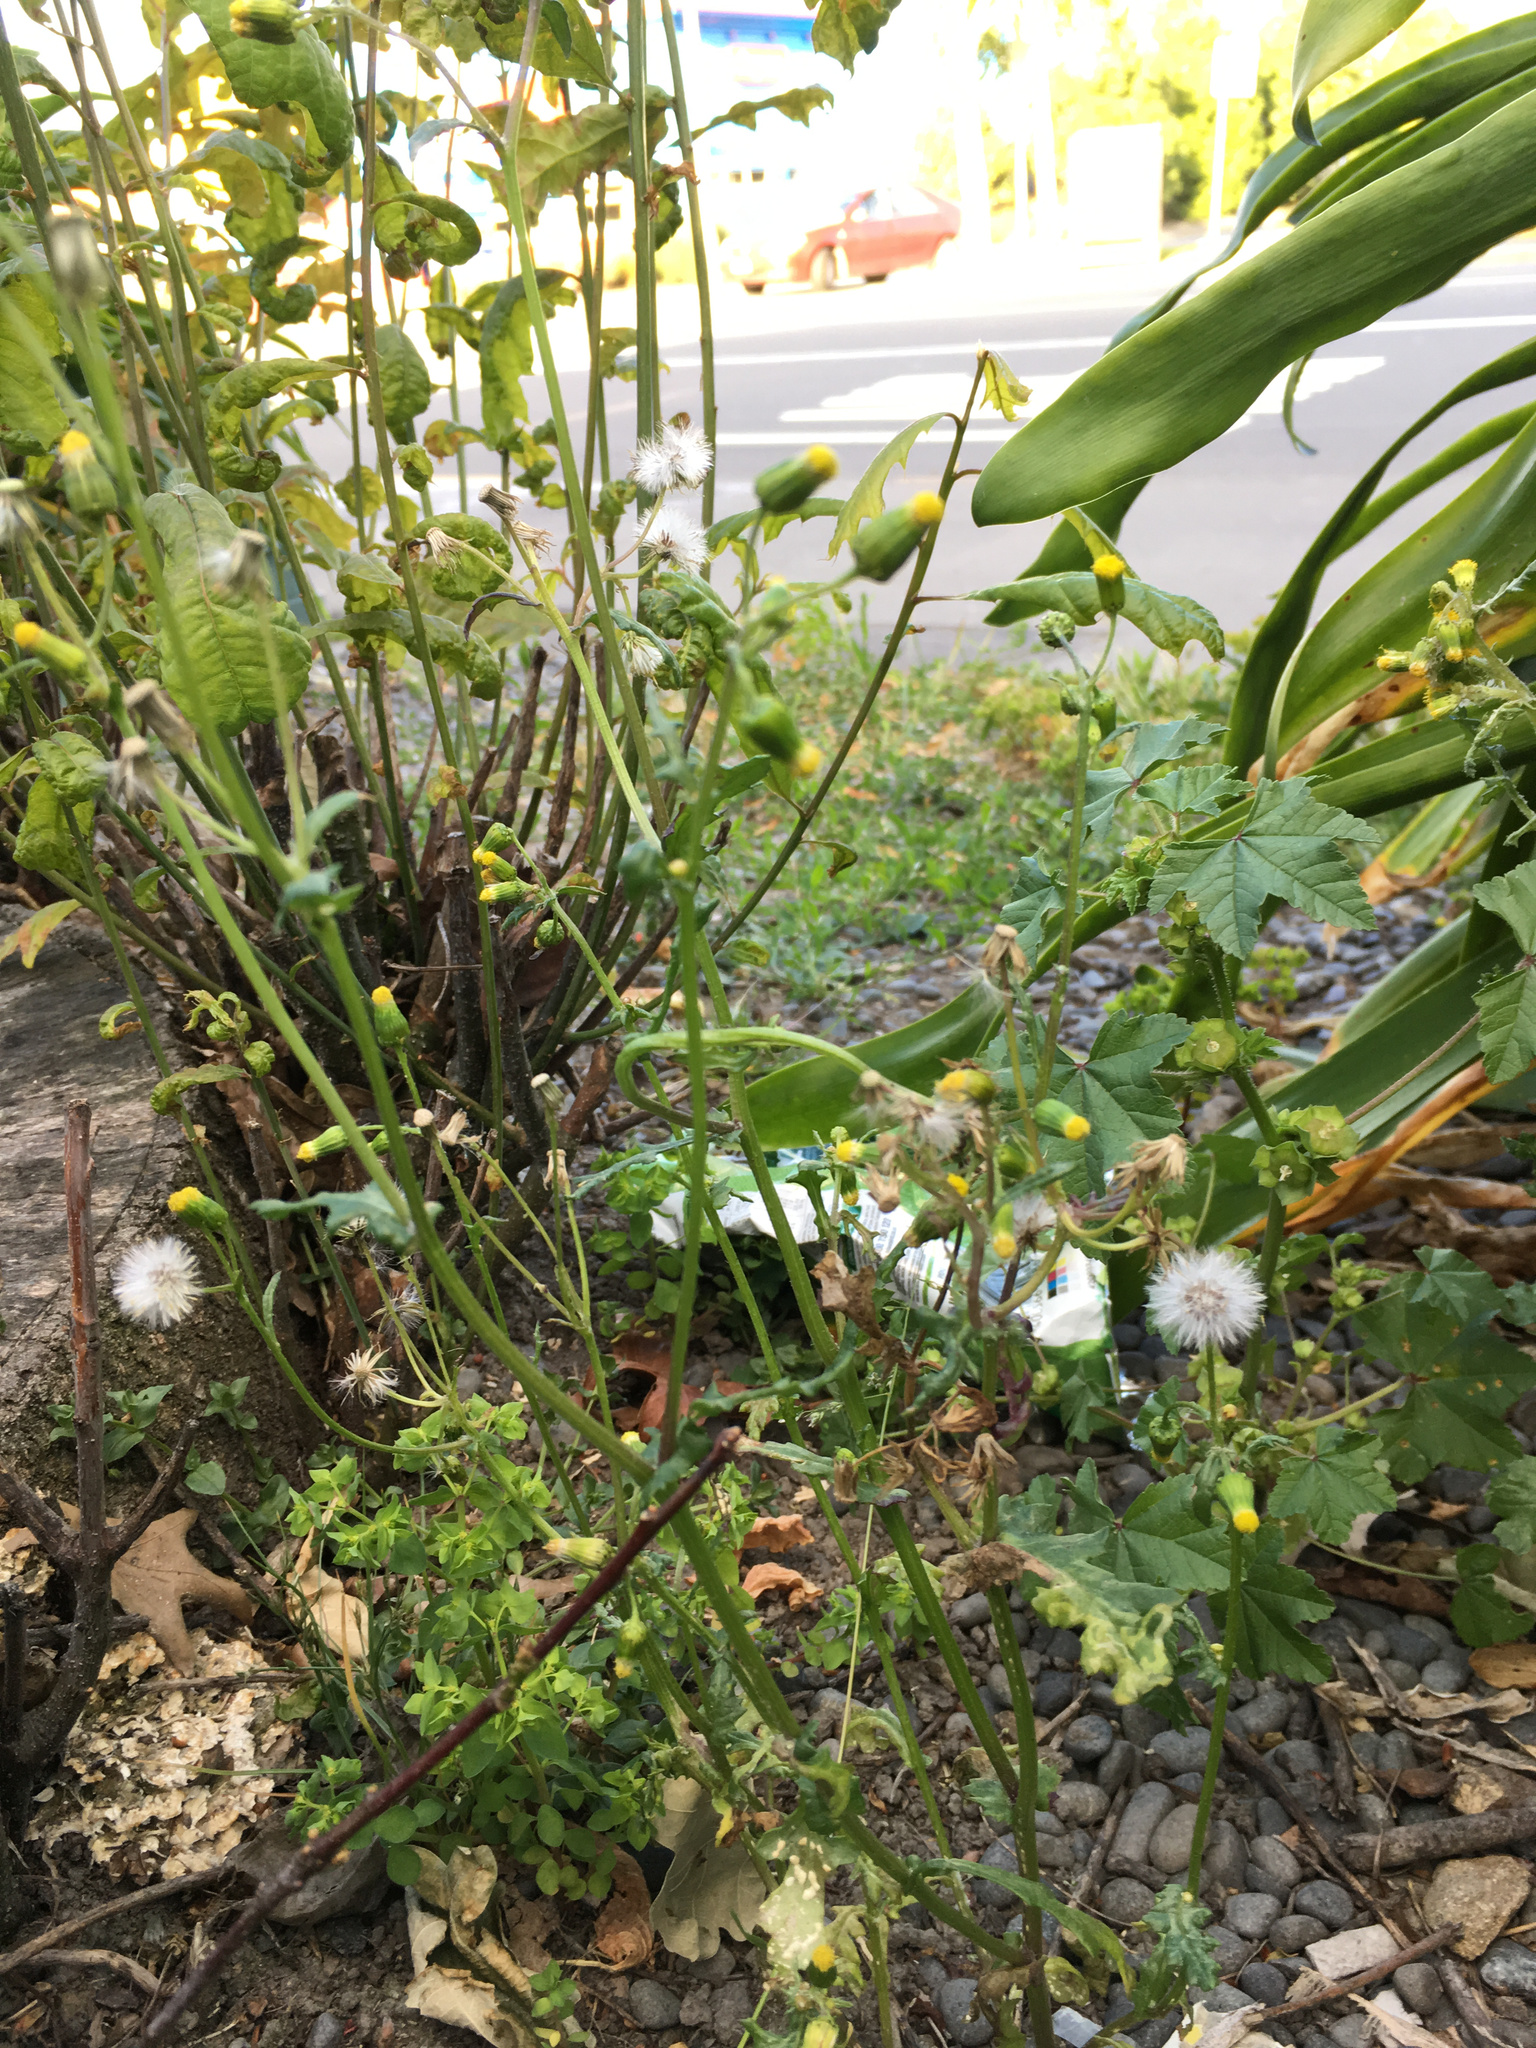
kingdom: Plantae
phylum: Tracheophyta
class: Magnoliopsida
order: Asterales
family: Asteraceae
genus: Senecio
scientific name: Senecio vulgaris
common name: Old-man-in-the-spring
